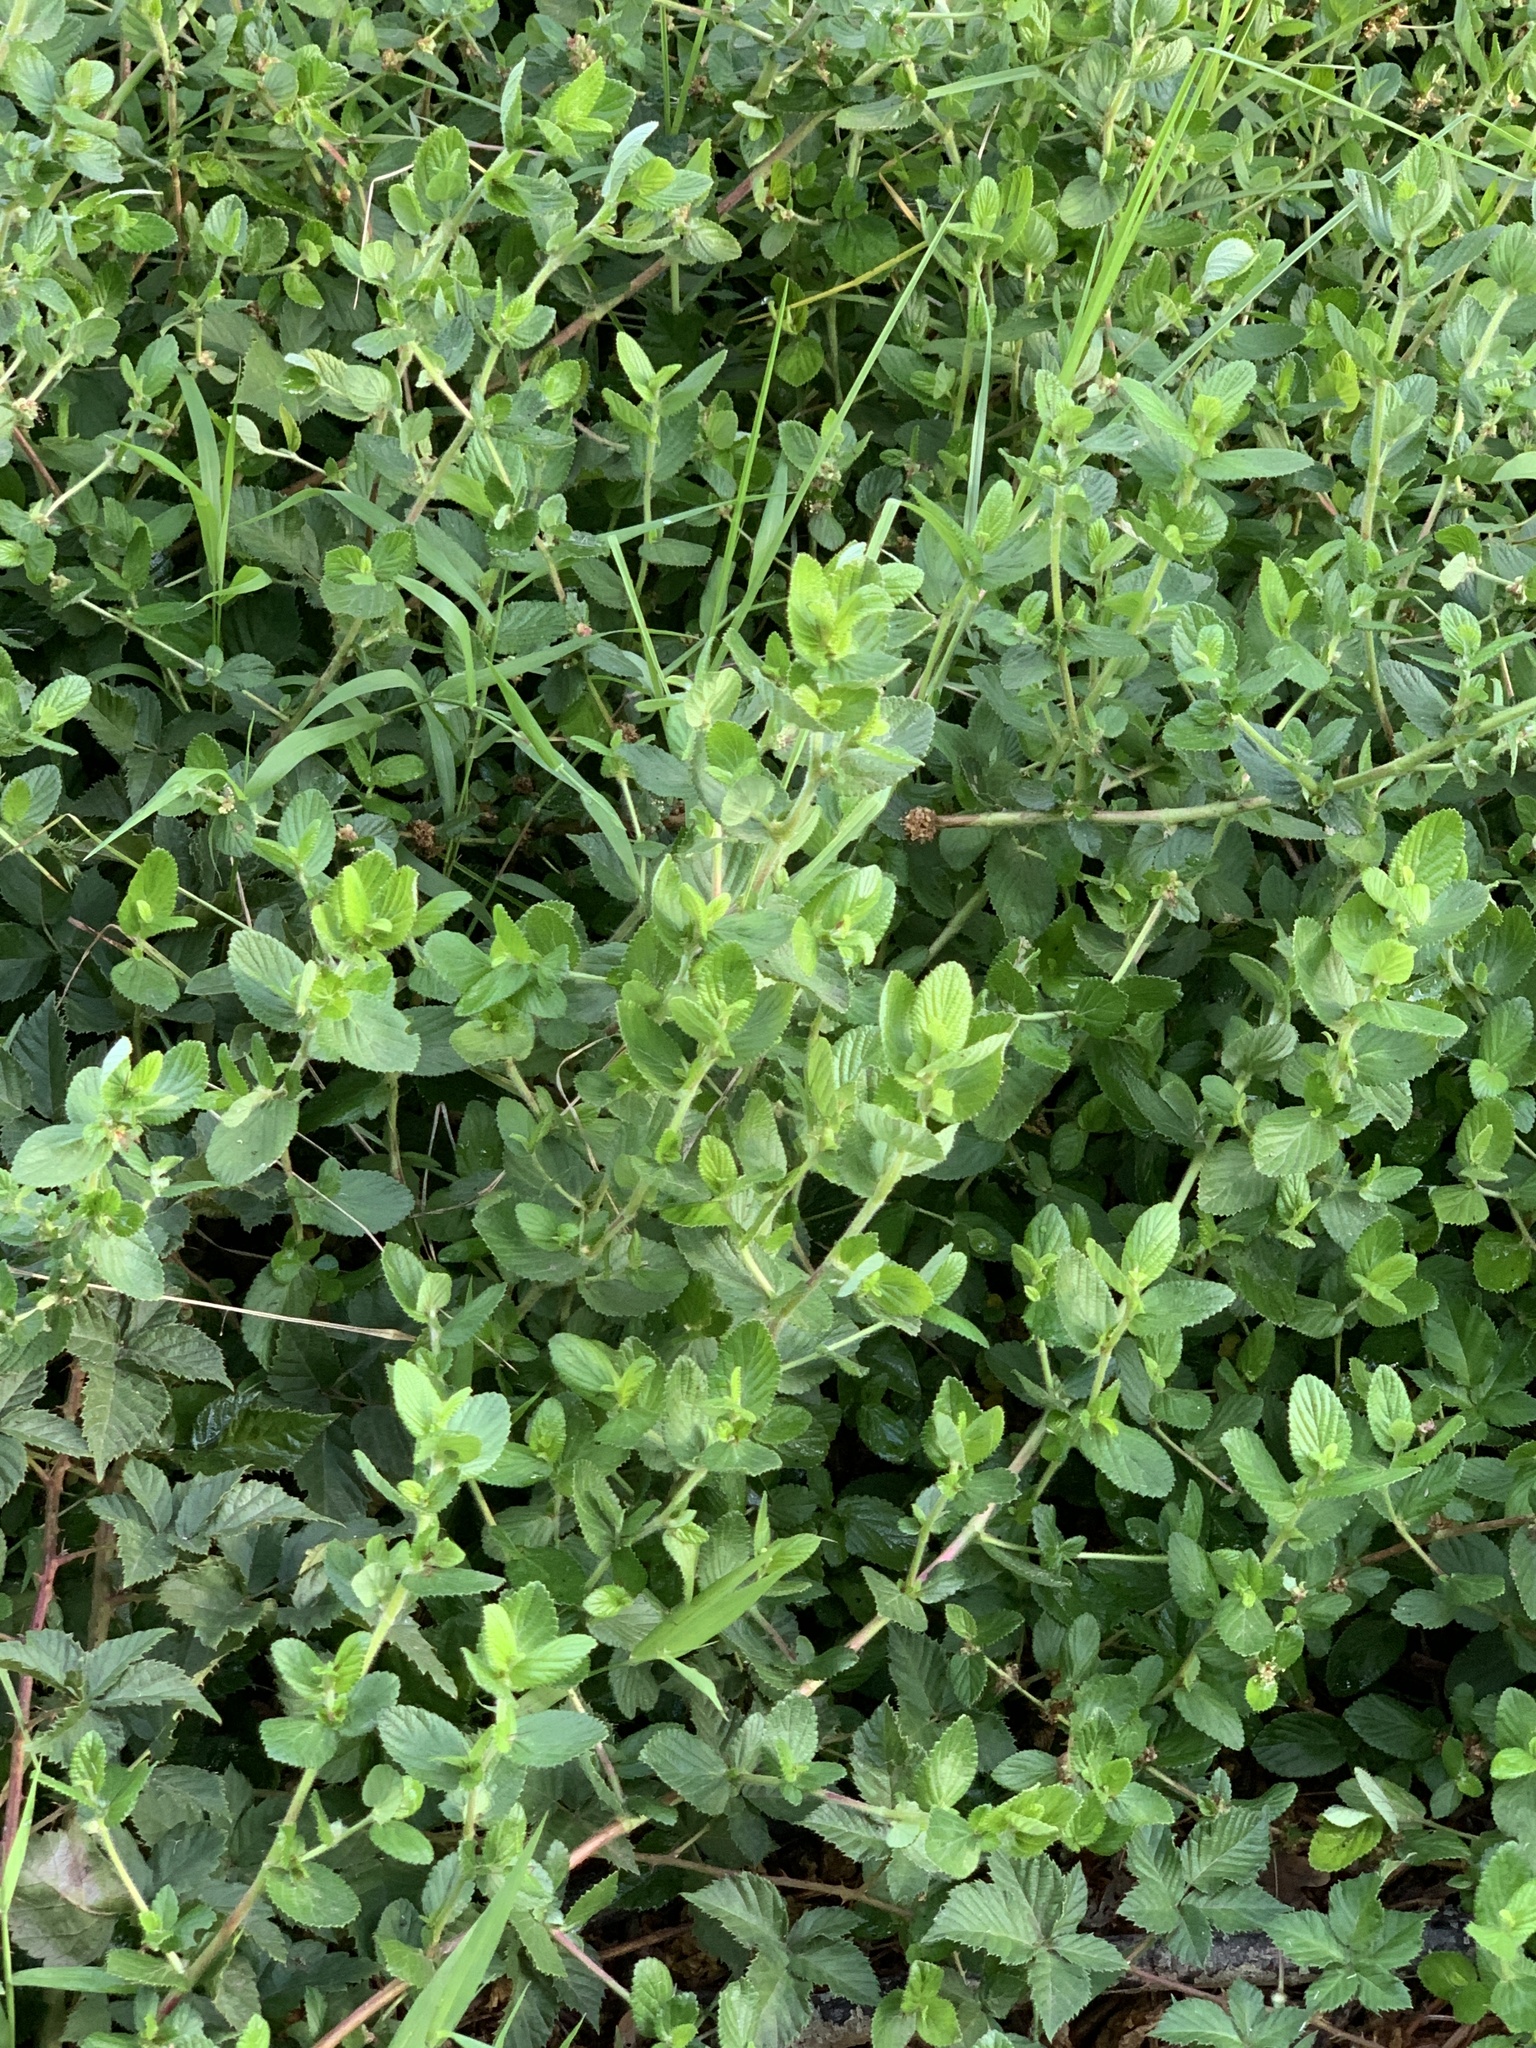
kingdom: Plantae
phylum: Tracheophyta
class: Magnoliopsida
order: Rosales
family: Rosaceae
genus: Cliffortia
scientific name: Cliffortia odorata
